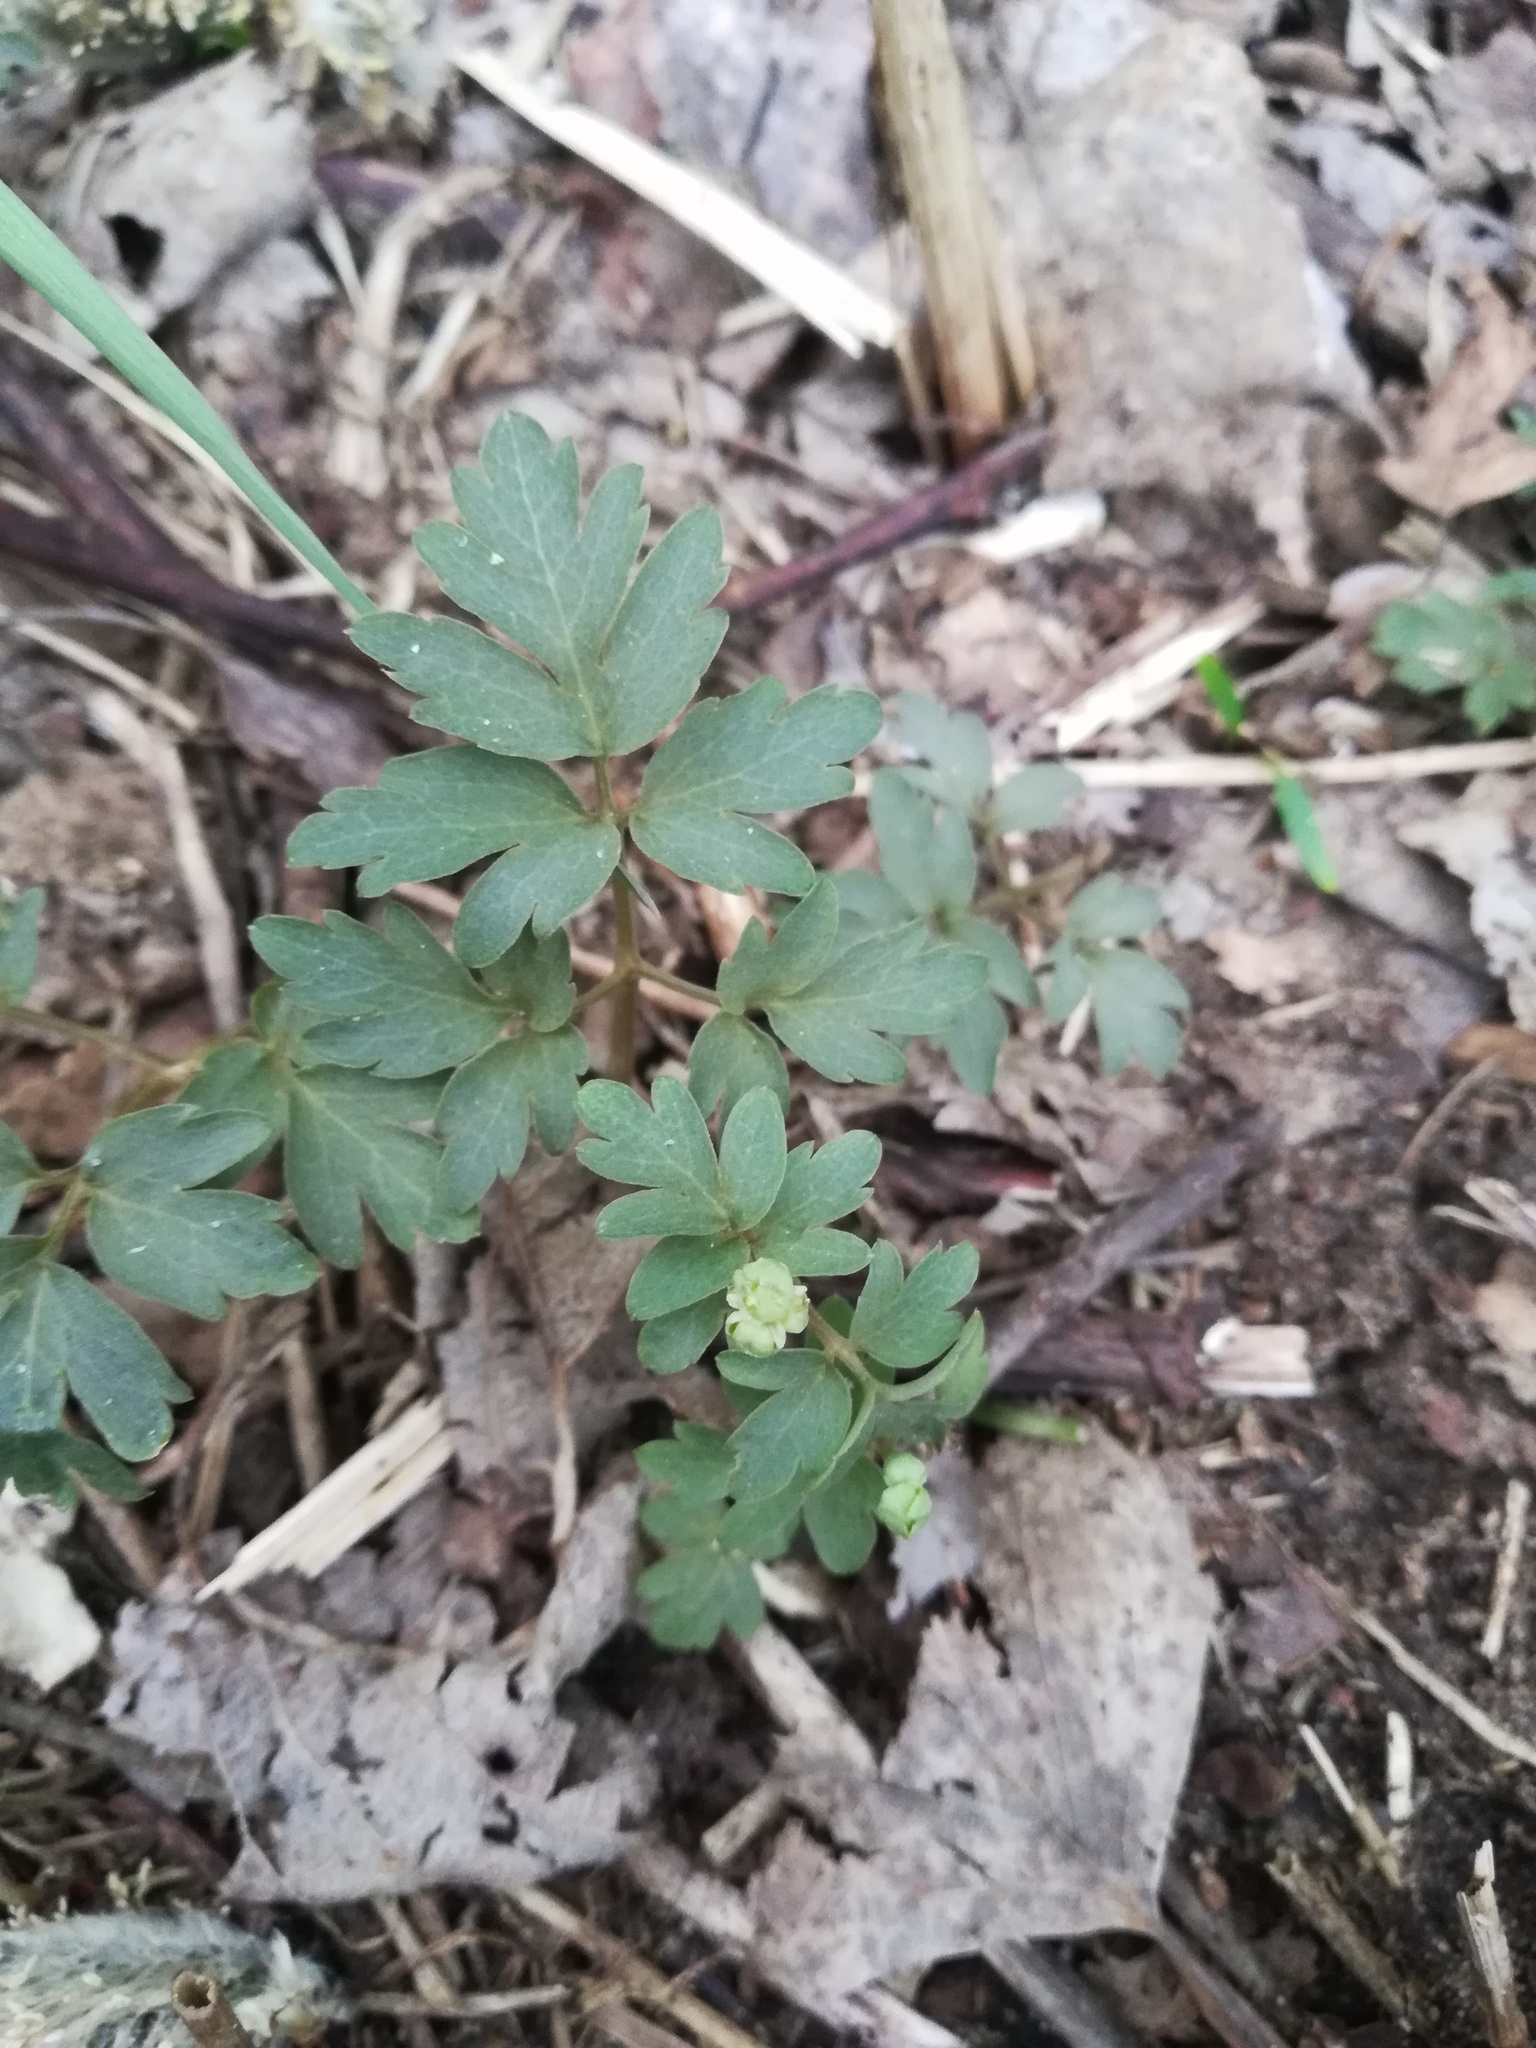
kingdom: Plantae
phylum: Tracheophyta
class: Magnoliopsida
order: Dipsacales
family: Viburnaceae
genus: Adoxa
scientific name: Adoxa moschatellina
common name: Moschatel
